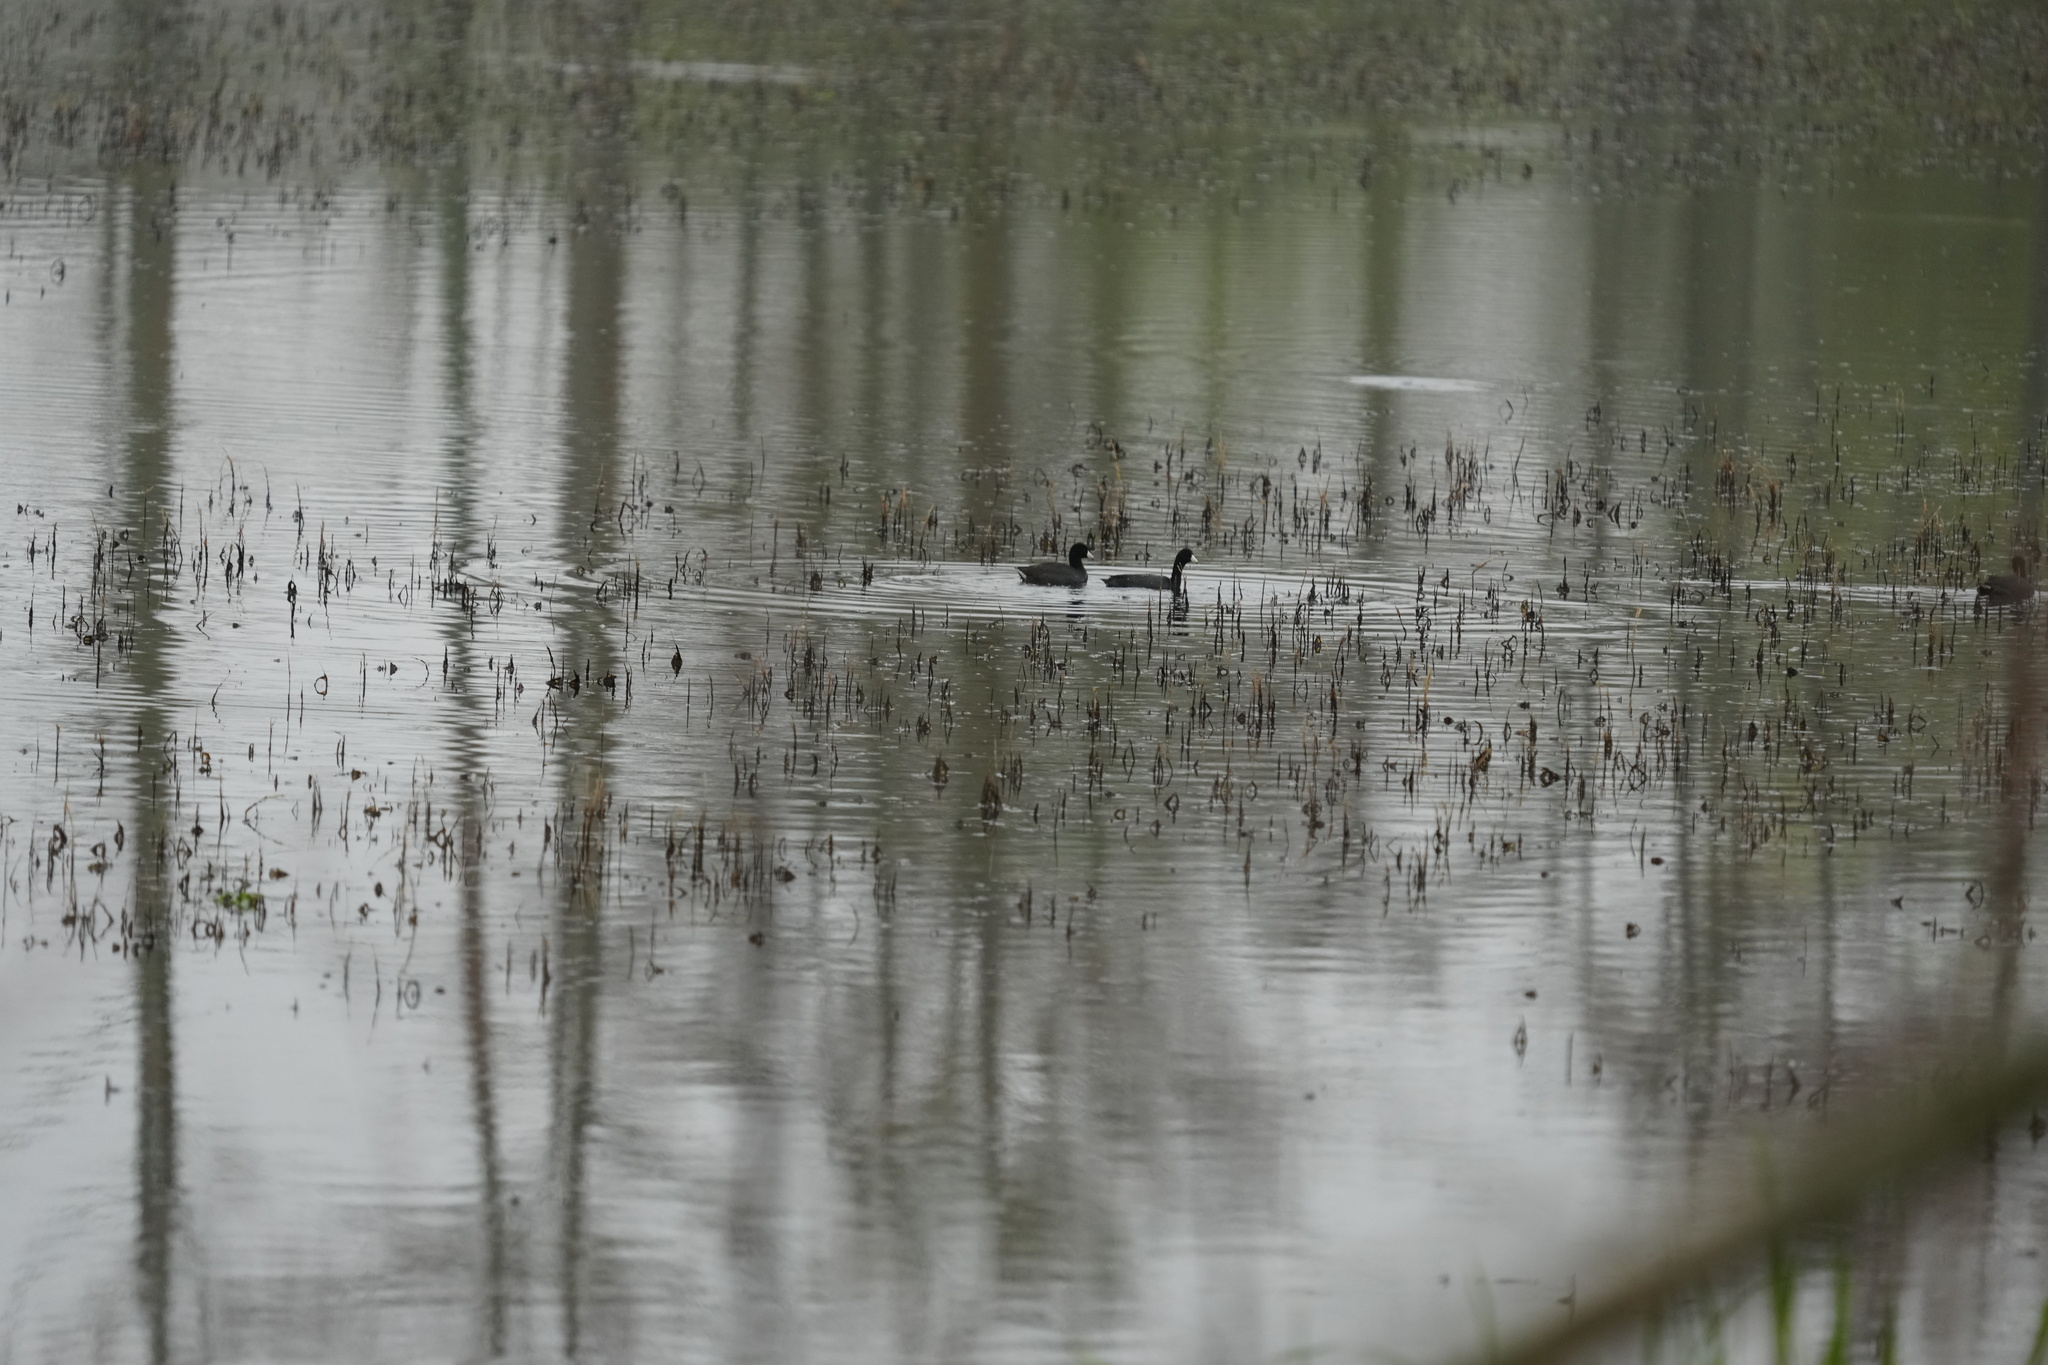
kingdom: Animalia
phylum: Chordata
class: Aves
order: Gruiformes
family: Rallidae
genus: Fulica
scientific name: Fulica americana
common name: American coot
